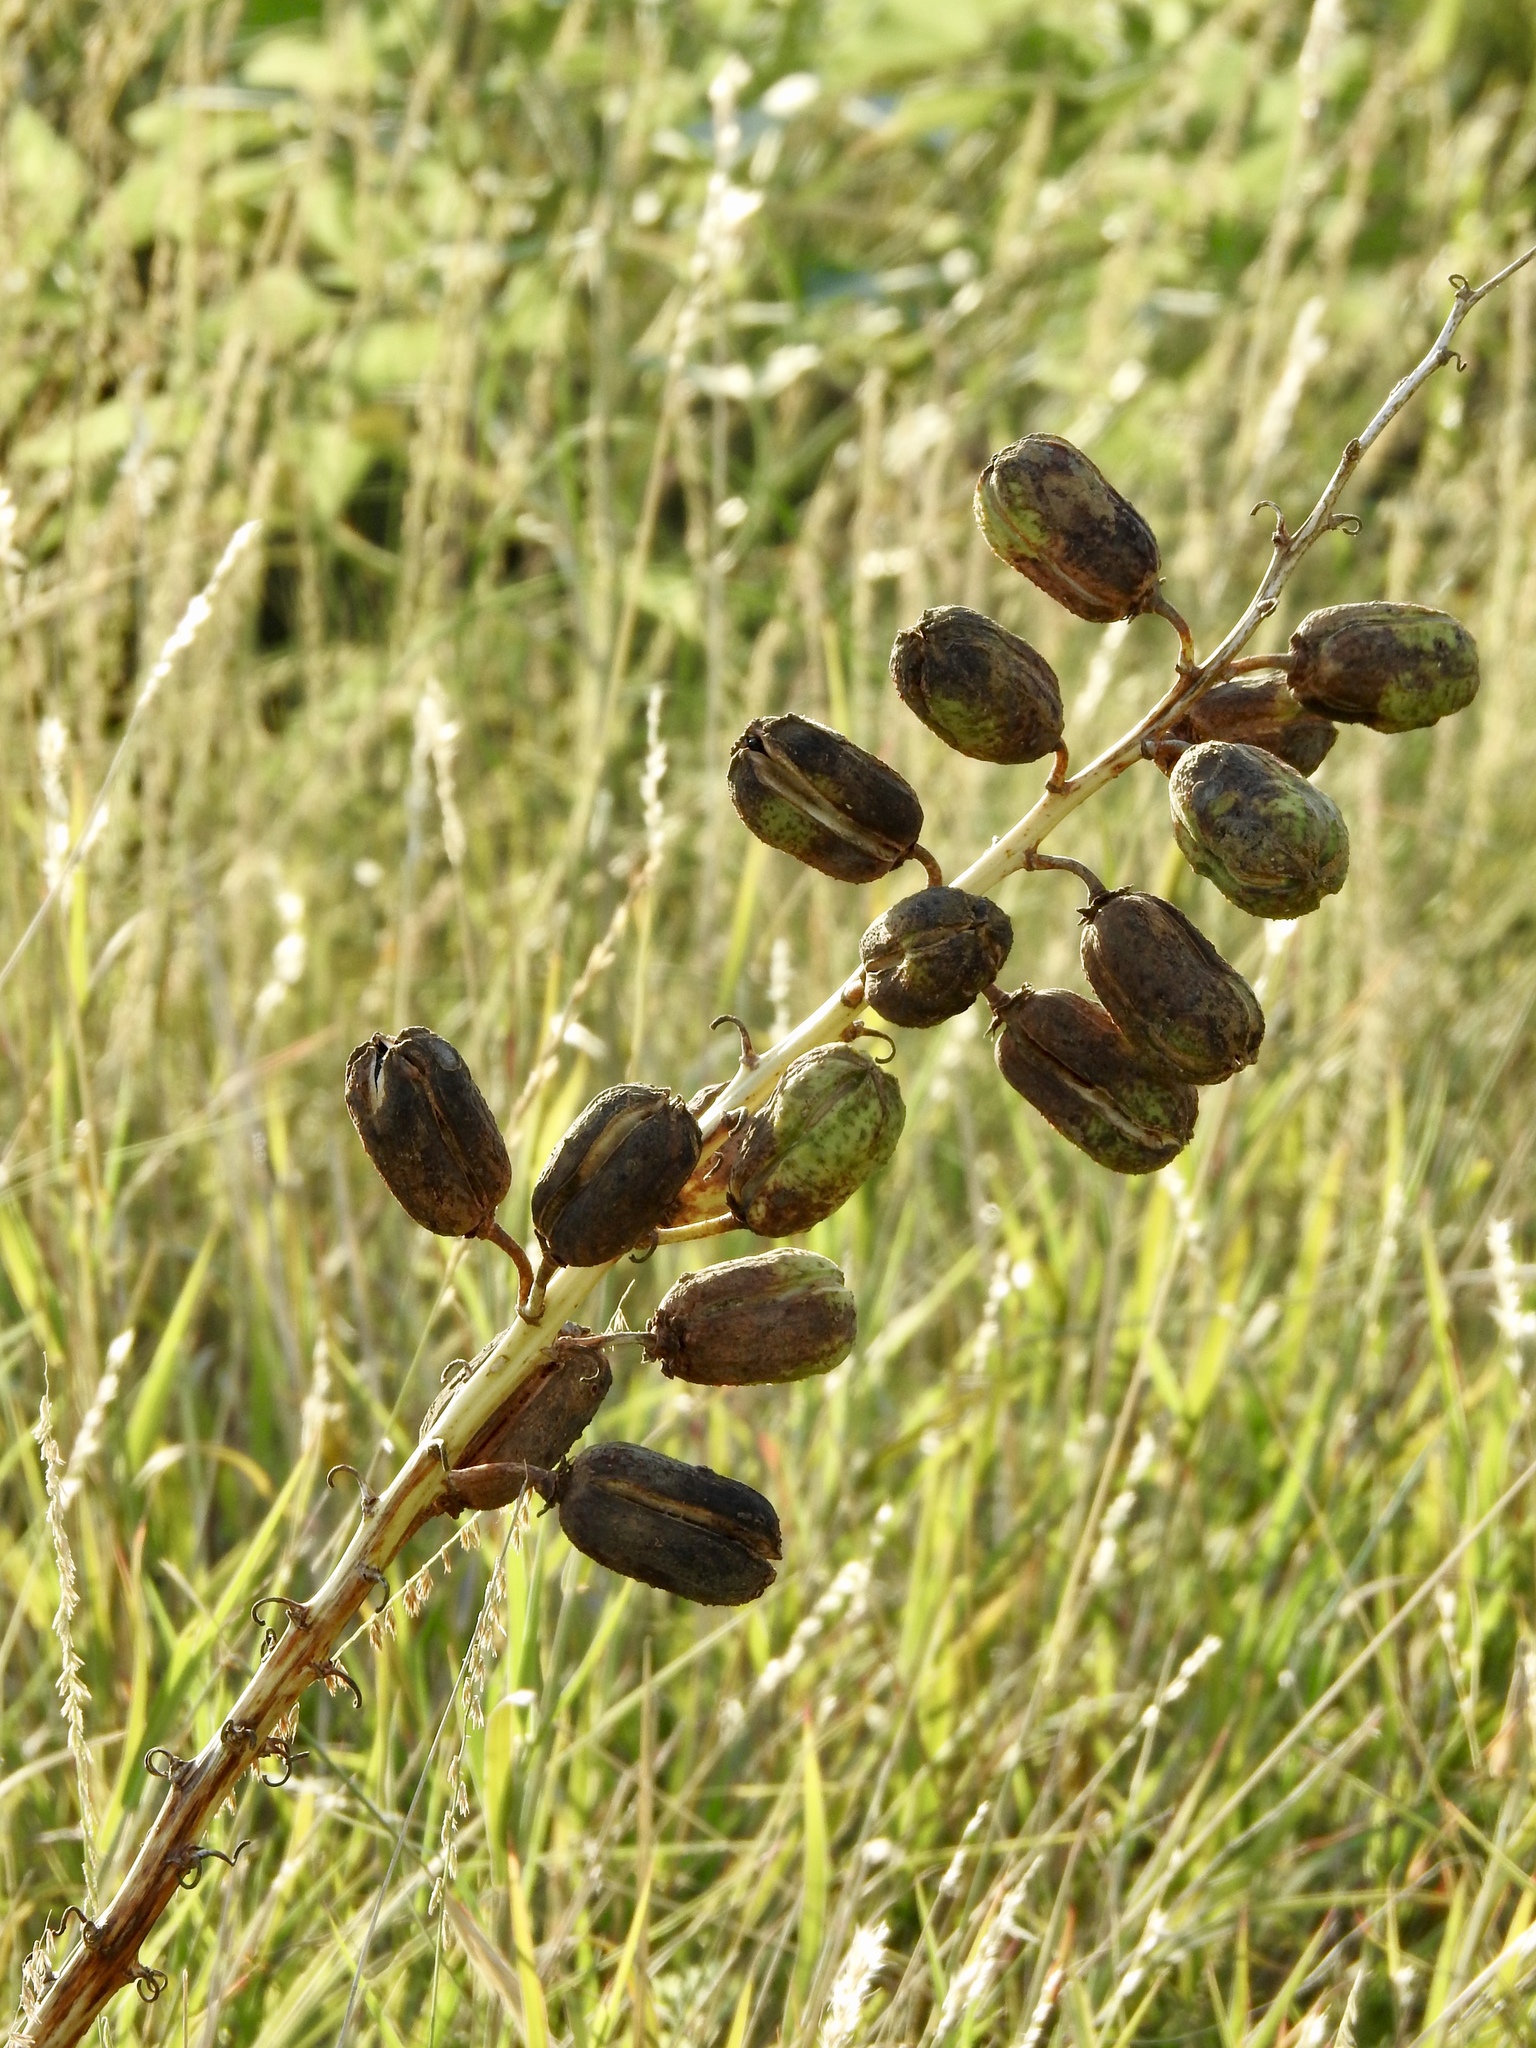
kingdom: Plantae
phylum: Tracheophyta
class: Liliopsida
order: Asparagales
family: Asparagaceae
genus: Yucca
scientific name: Yucca glauca
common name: Great plains yucca
